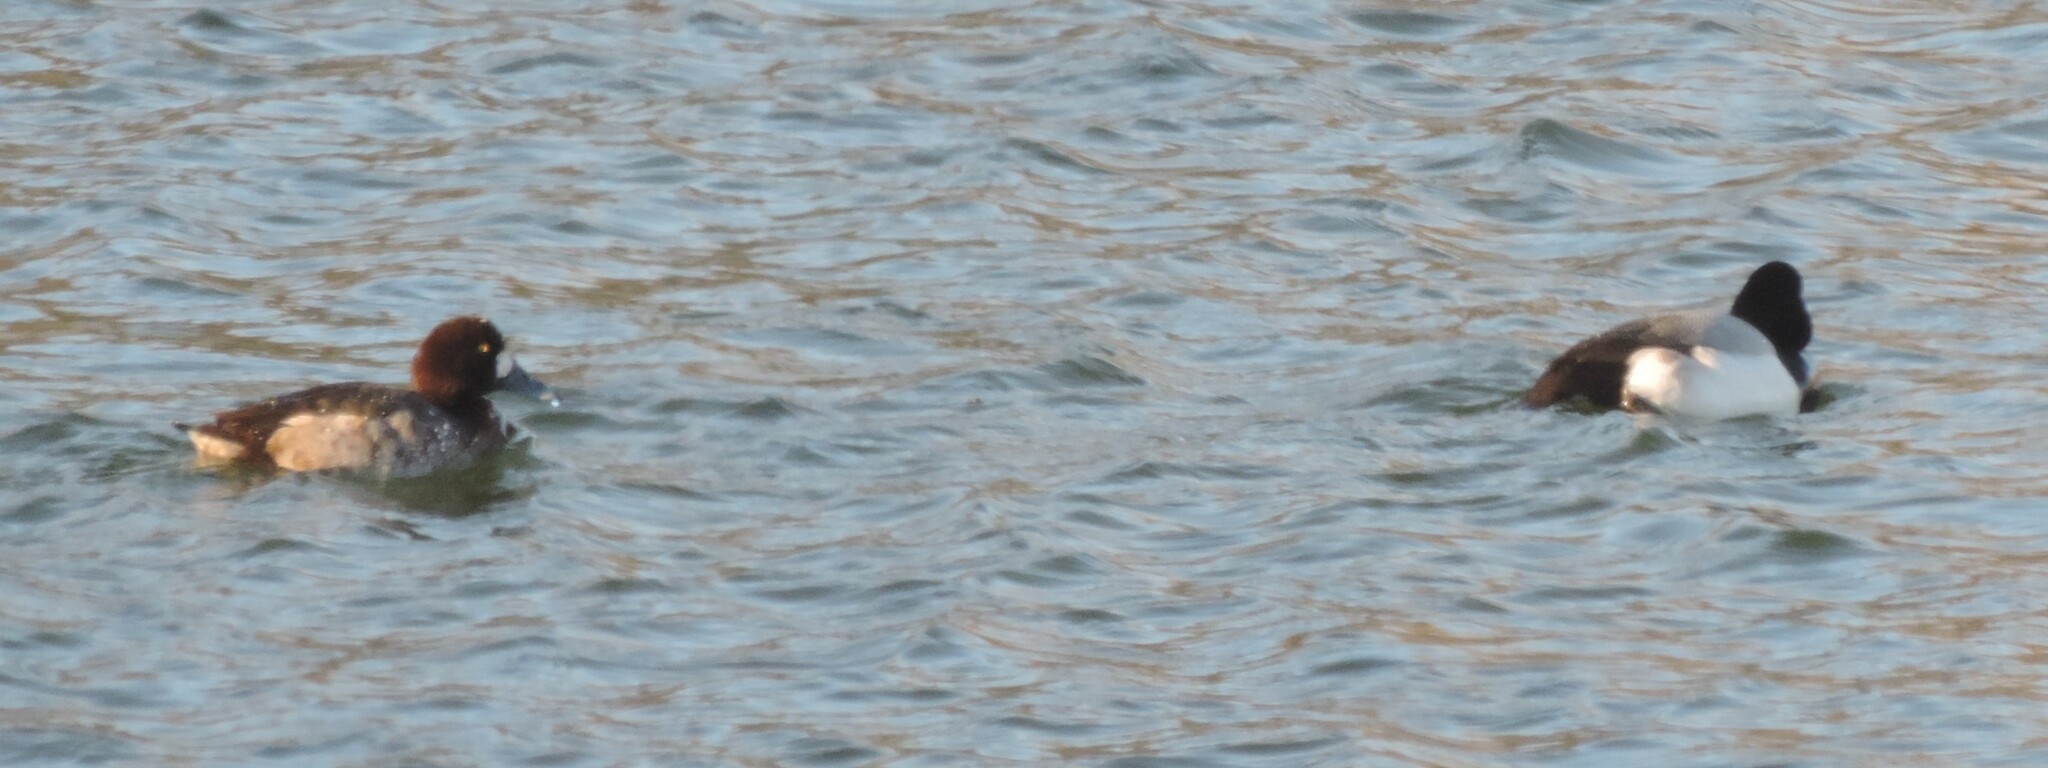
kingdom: Animalia
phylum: Chordata
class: Aves
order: Anseriformes
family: Anatidae
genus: Aythya
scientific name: Aythya marila
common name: Greater scaup
